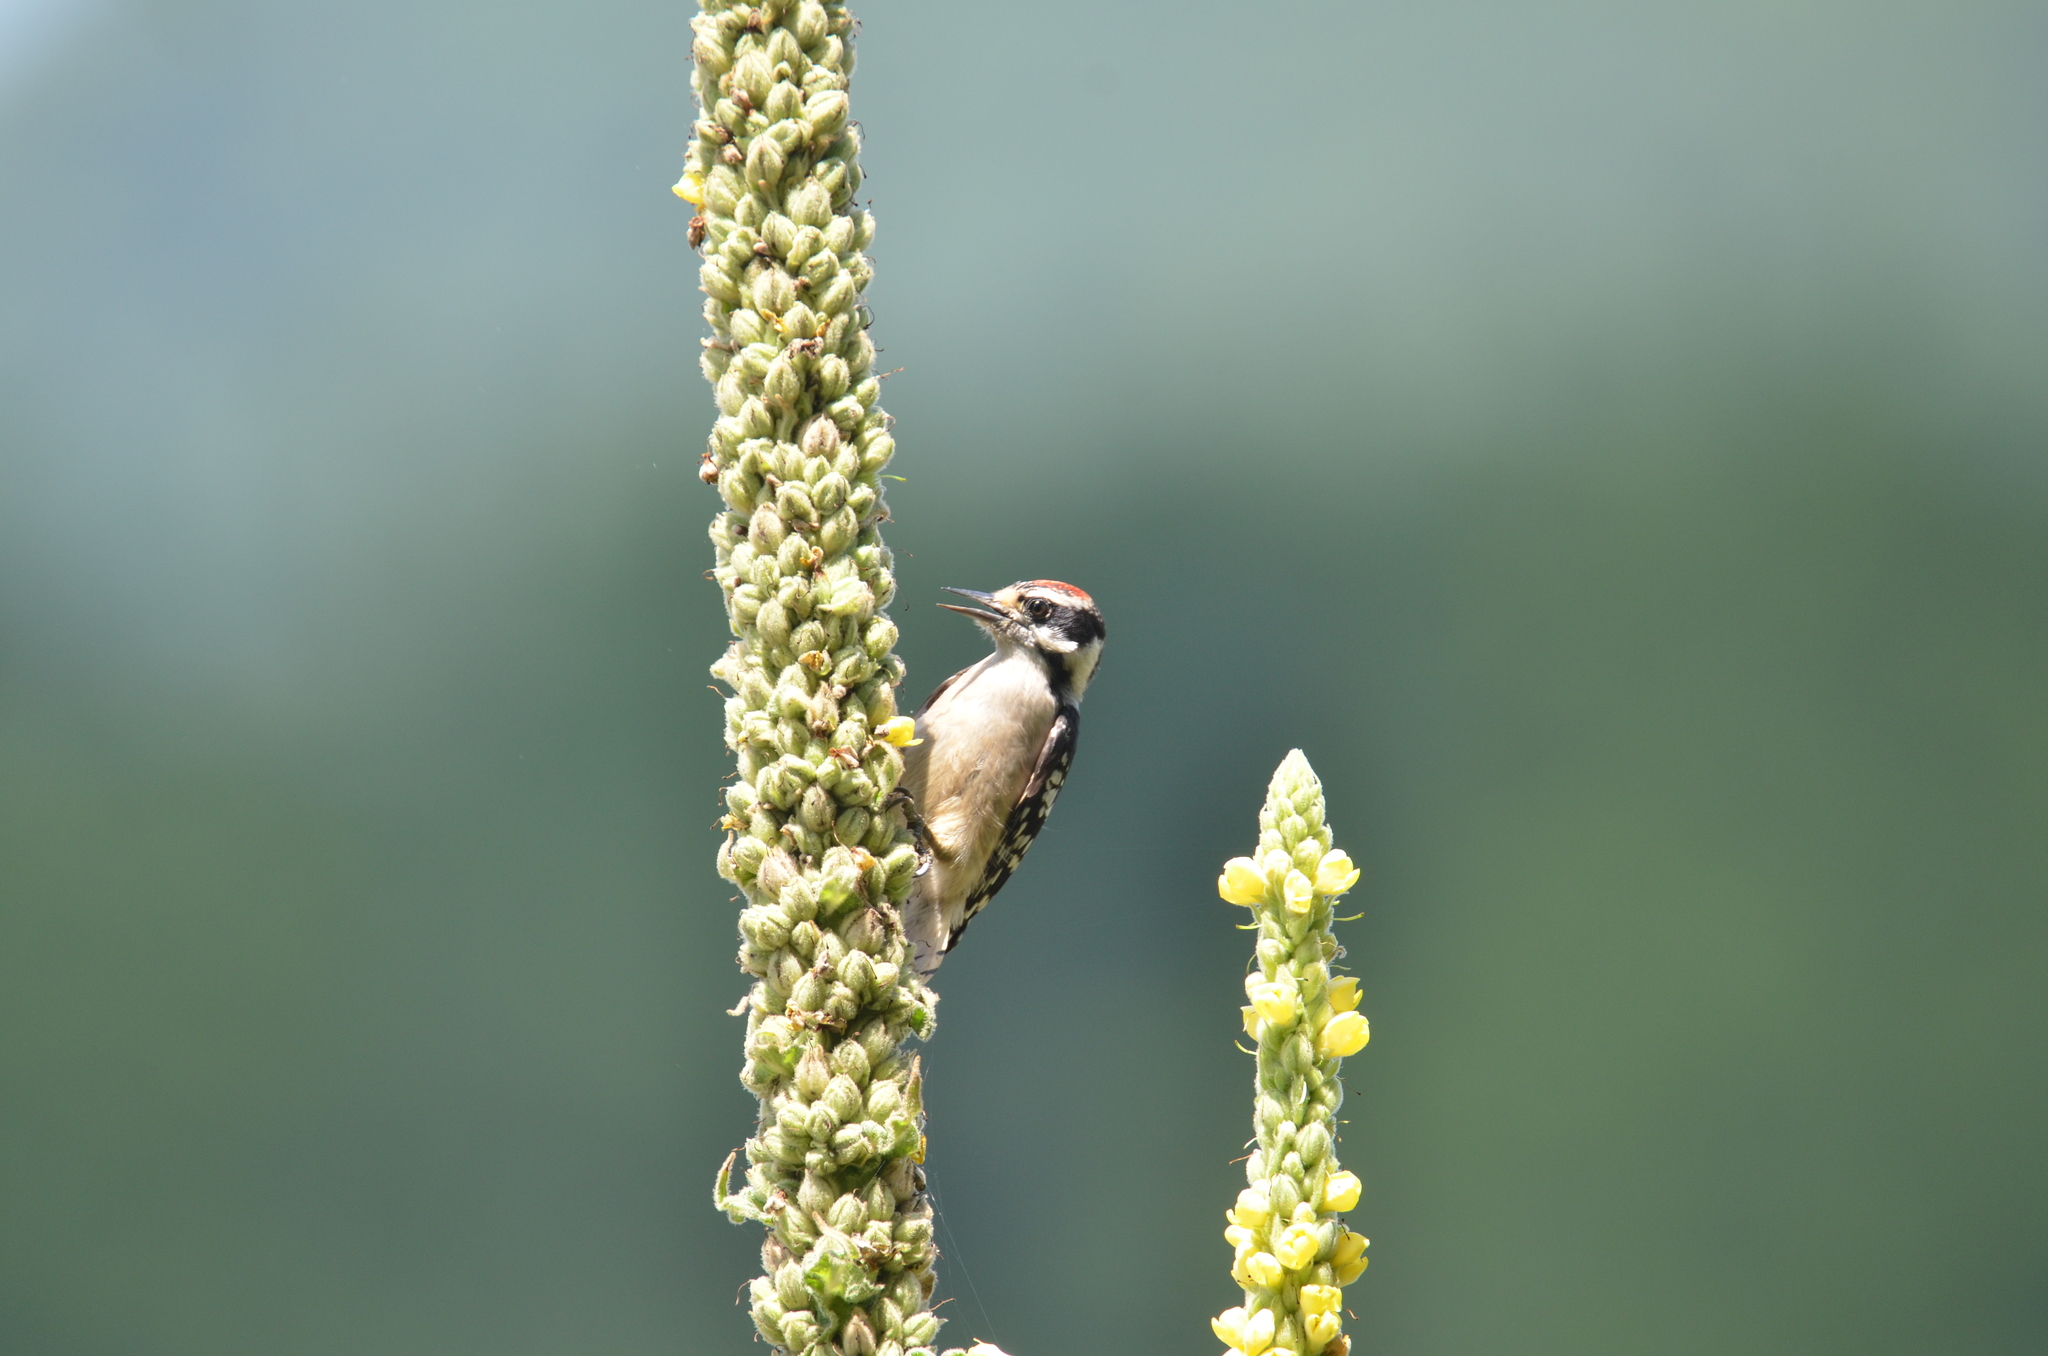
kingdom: Animalia
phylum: Chordata
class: Aves
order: Piciformes
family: Picidae
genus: Dryobates
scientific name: Dryobates pubescens
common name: Downy woodpecker
